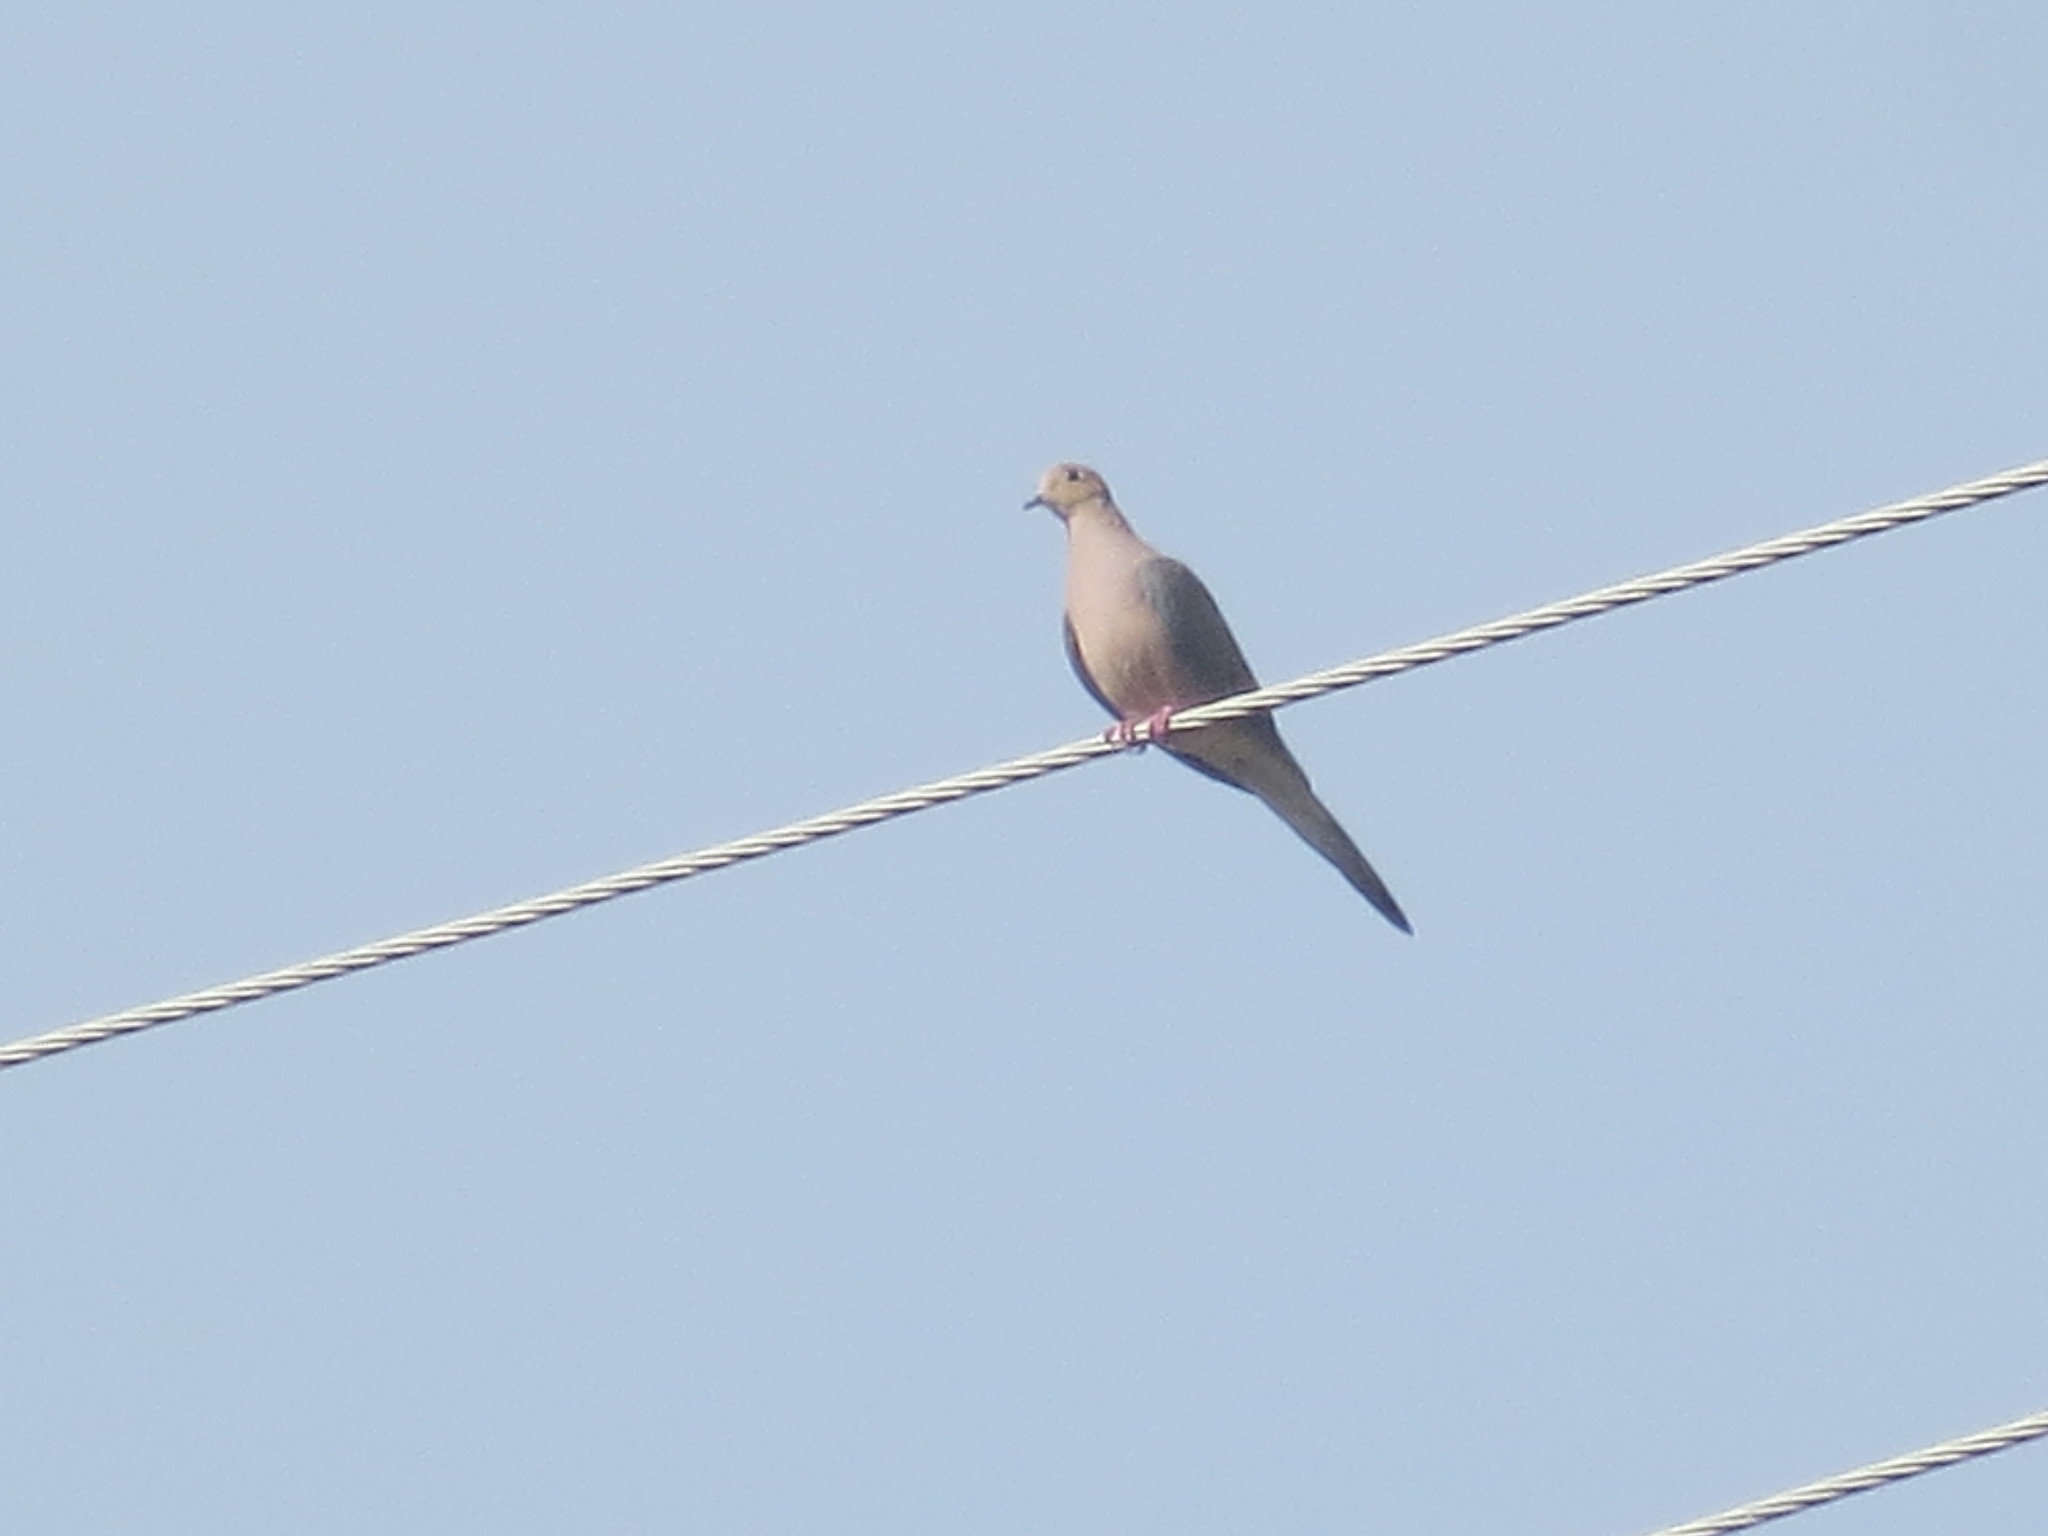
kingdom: Animalia
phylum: Chordata
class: Aves
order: Columbiformes
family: Columbidae
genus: Zenaida
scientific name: Zenaida macroura
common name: Mourning dove
